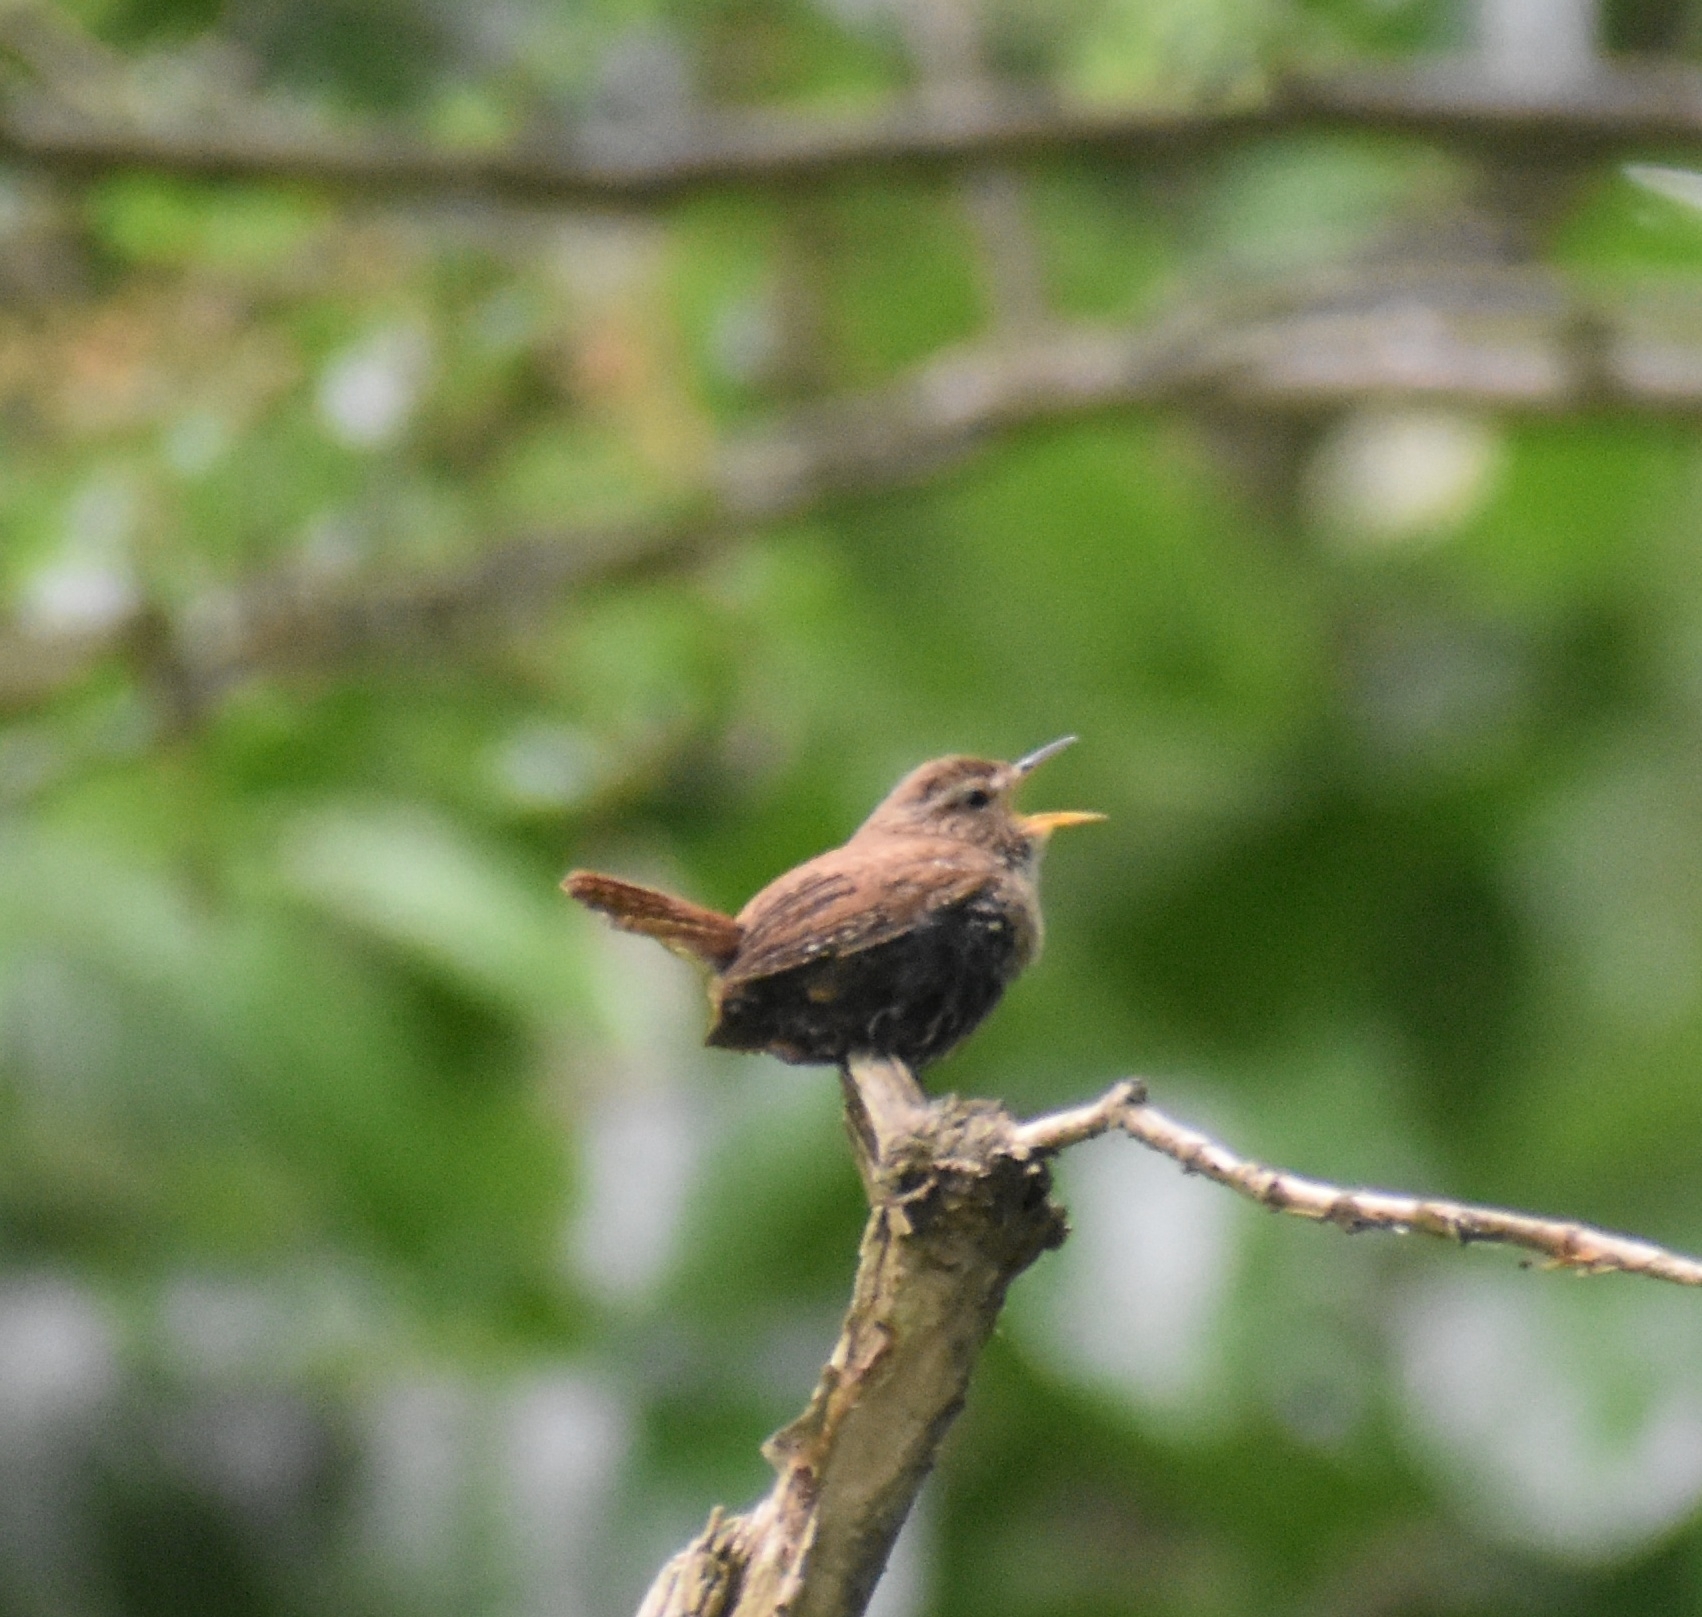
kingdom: Animalia
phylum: Chordata
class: Aves
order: Passeriformes
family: Troglodytidae
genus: Troglodytes
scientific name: Troglodytes troglodytes
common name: Eurasian wren
